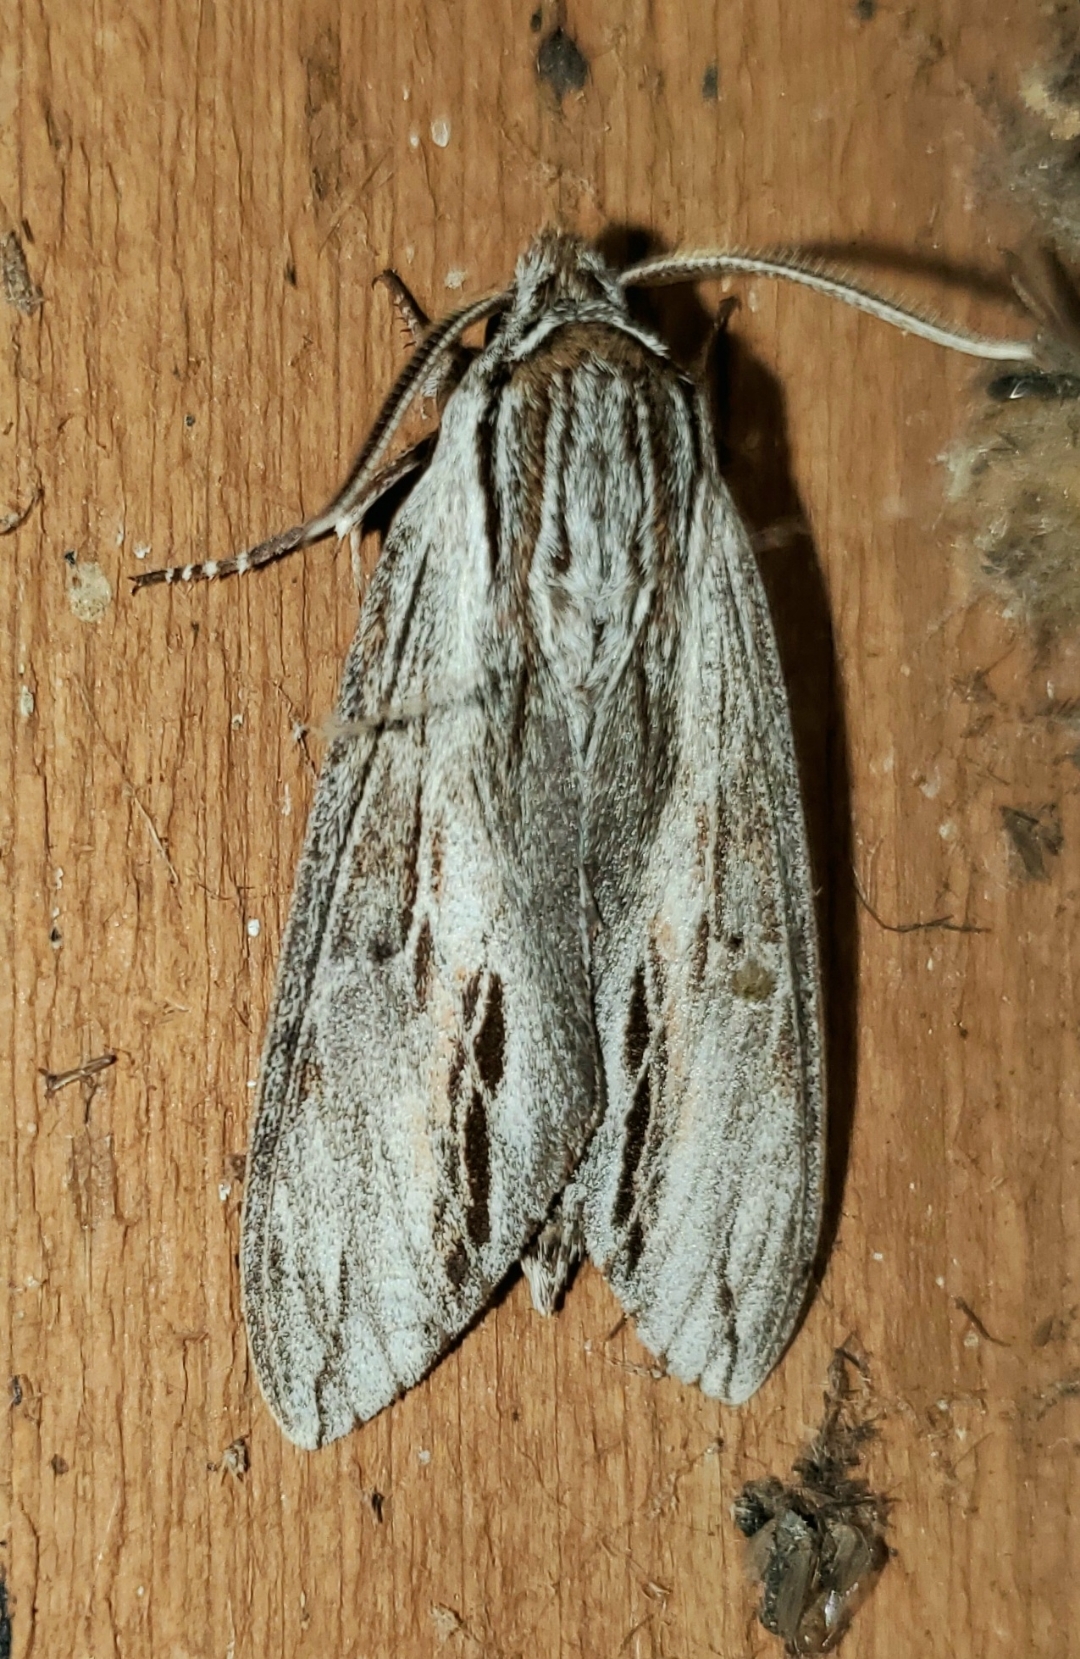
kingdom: Animalia
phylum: Arthropoda
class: Insecta
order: Lepidoptera
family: Sphingidae
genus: Isoparce
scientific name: Isoparce cupressi
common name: Cypress sphinx
